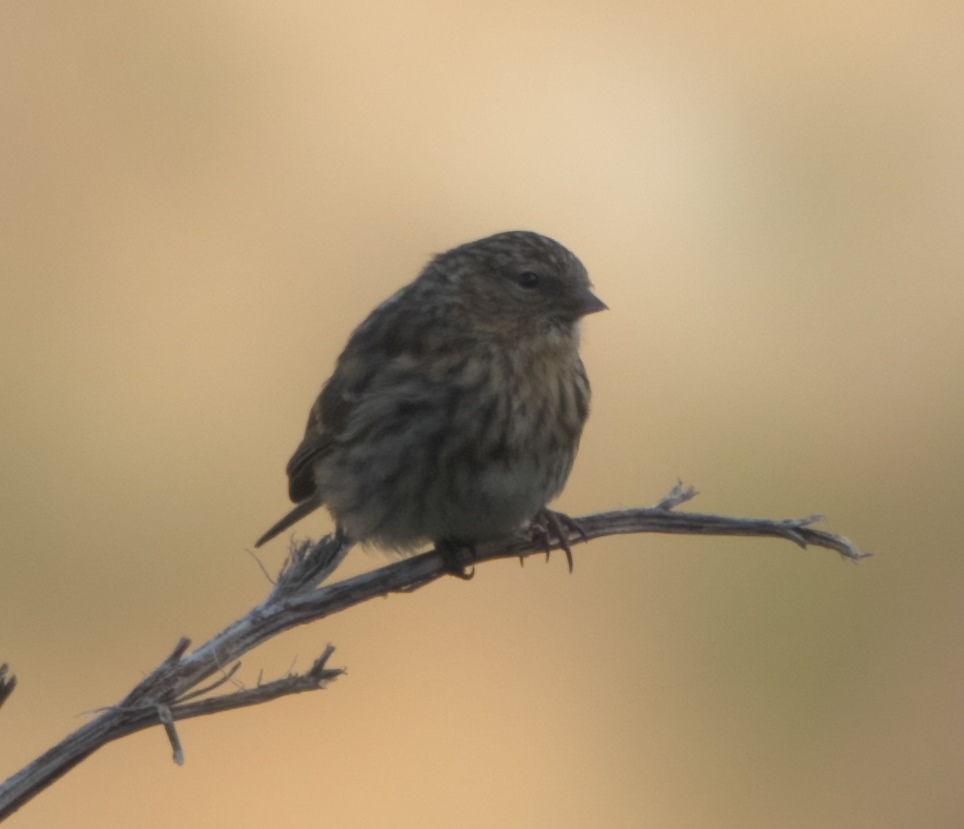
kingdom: Animalia
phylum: Chordata
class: Aves
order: Passeriformes
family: Fringillidae
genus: Acanthis
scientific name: Acanthis flammea
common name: Common redpoll
